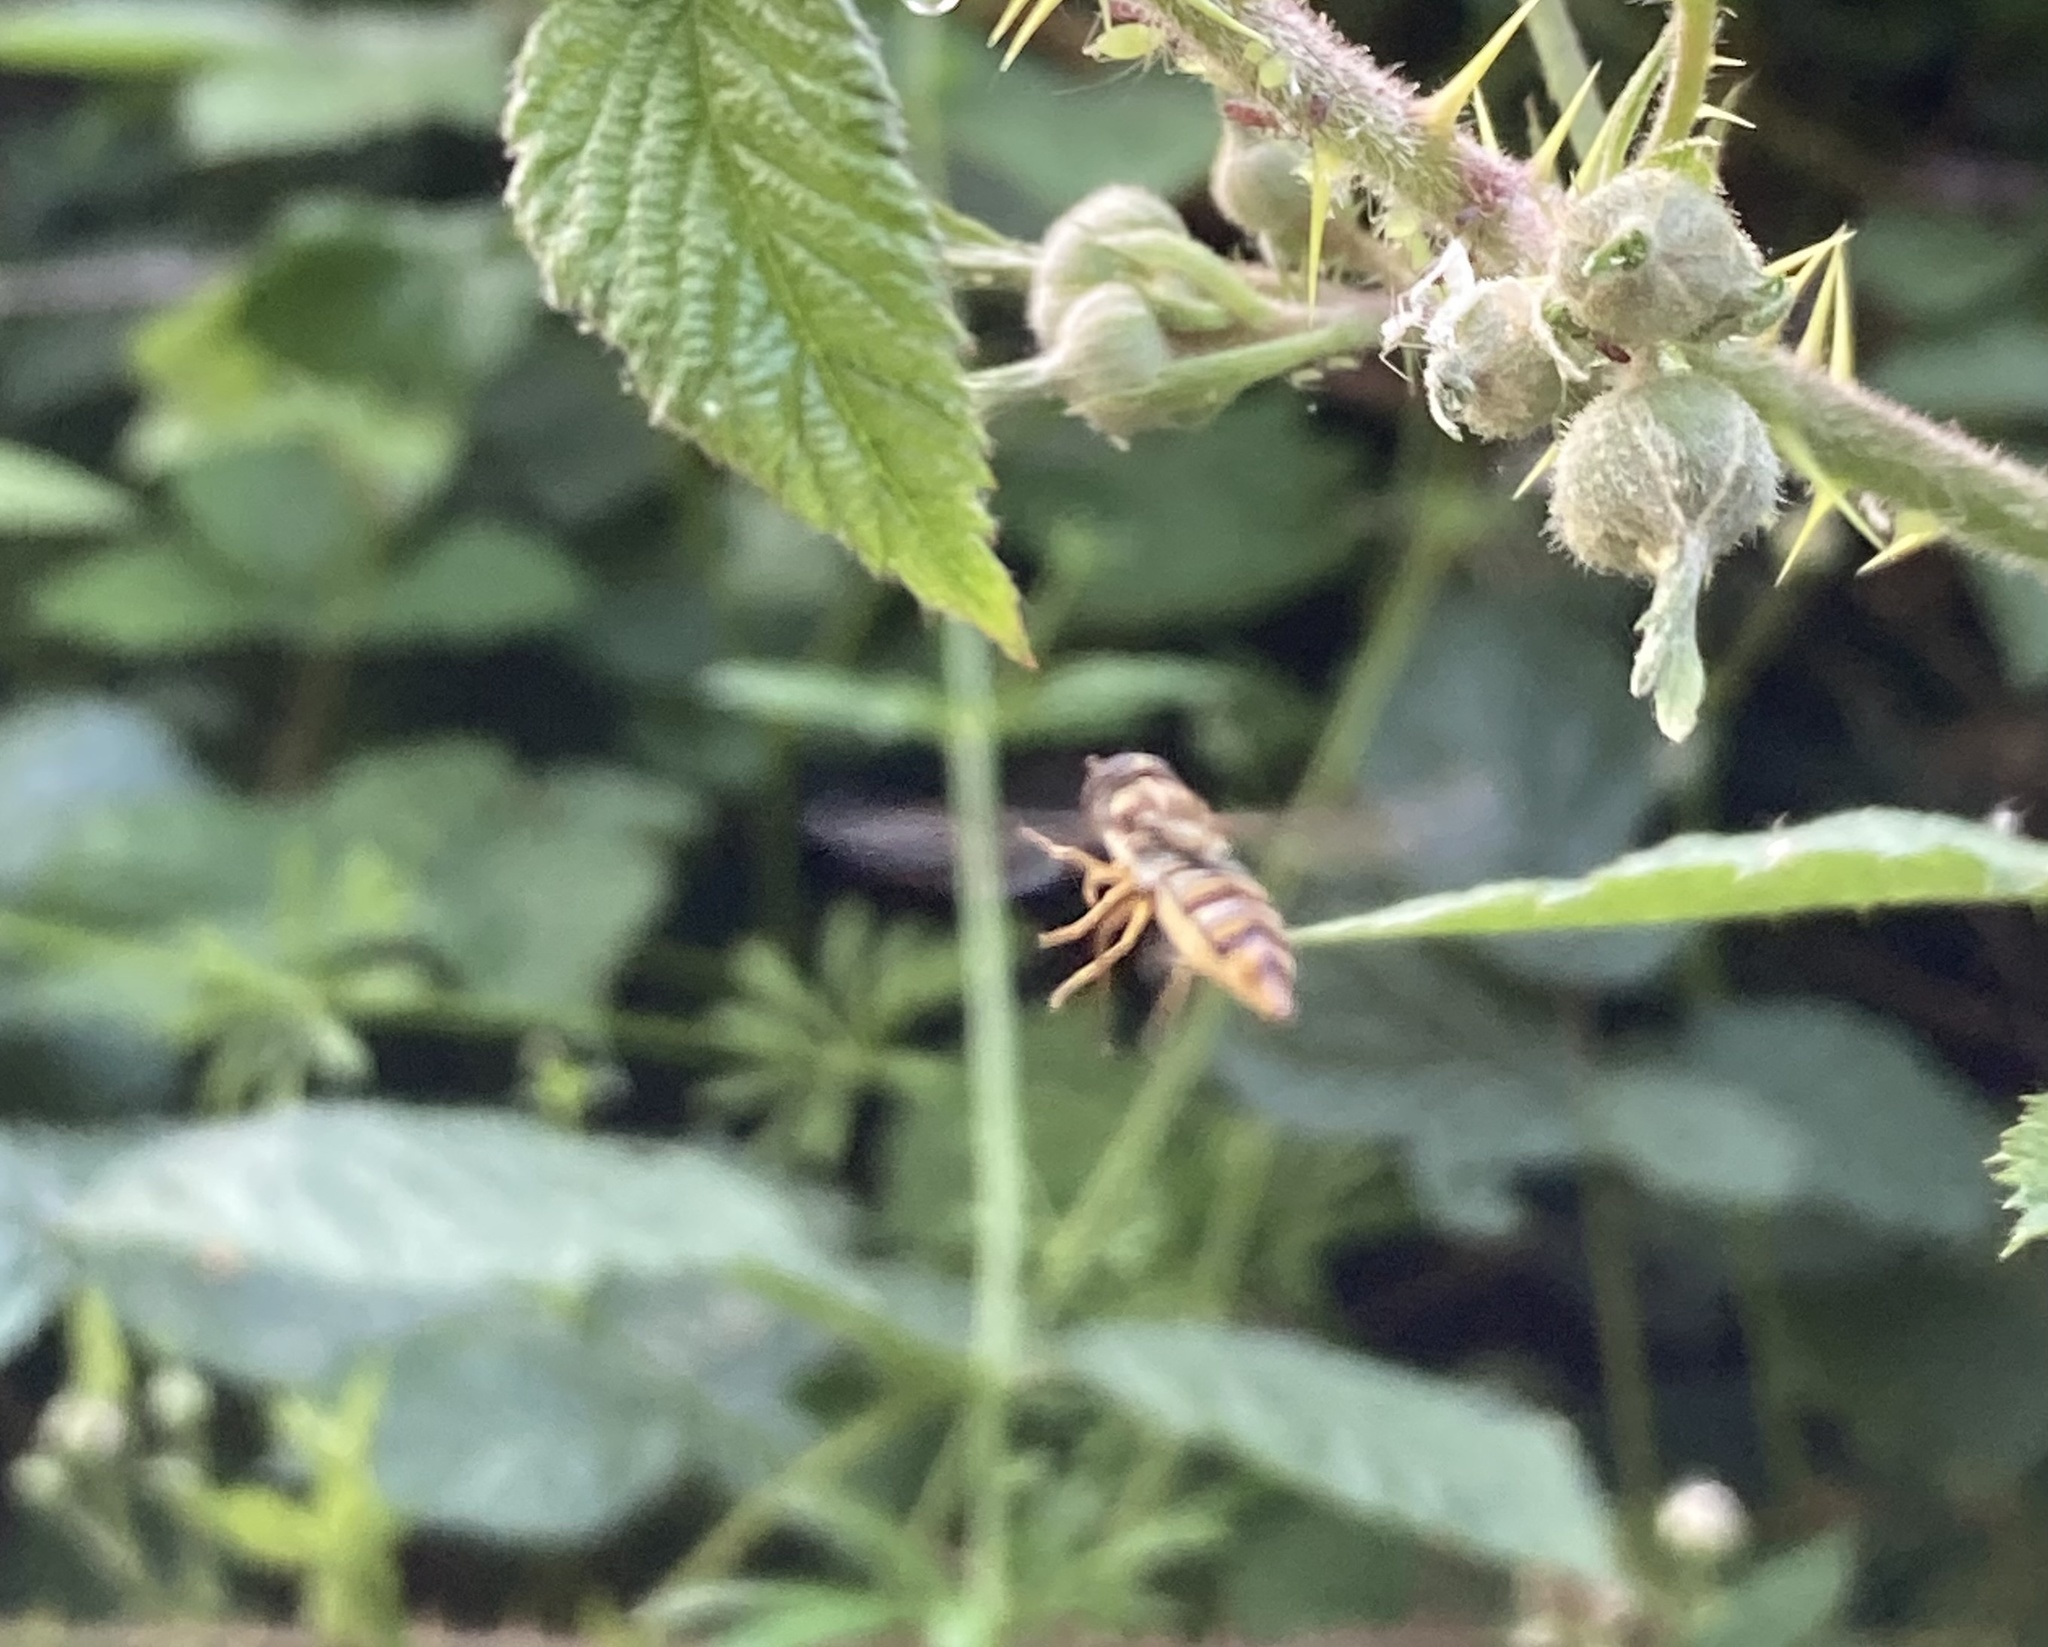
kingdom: Animalia
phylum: Arthropoda
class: Insecta
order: Diptera
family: Syrphidae
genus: Episyrphus
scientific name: Episyrphus balteatus
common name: Marmalade hoverfly
